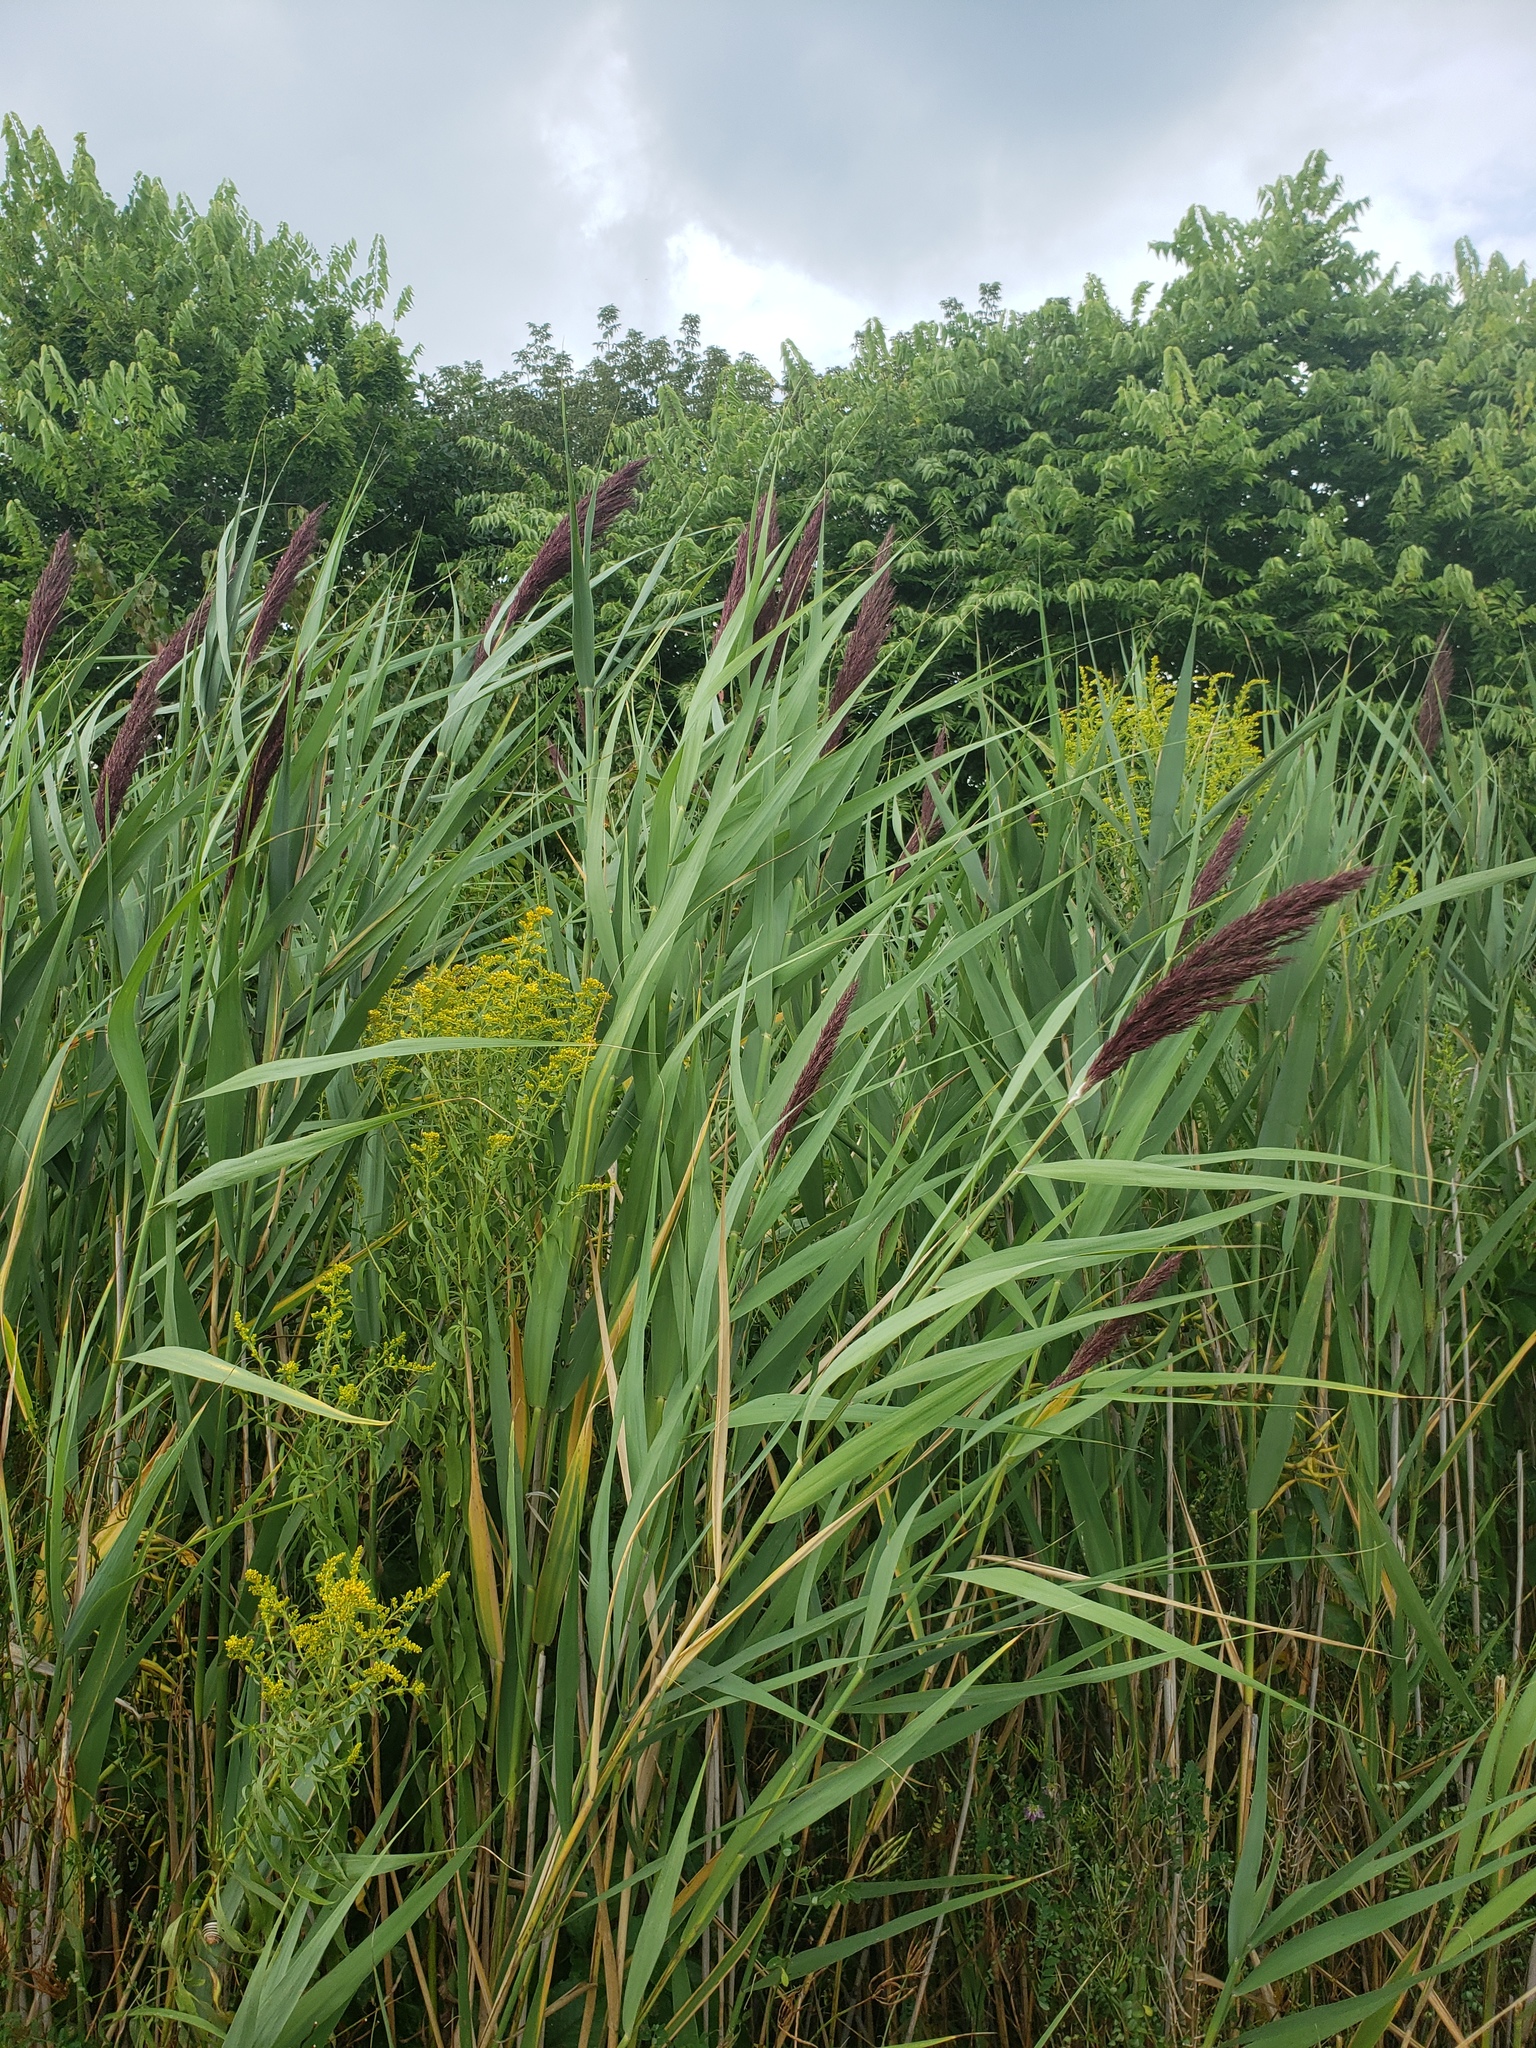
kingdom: Plantae
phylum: Tracheophyta
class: Liliopsida
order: Poales
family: Poaceae
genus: Phragmites
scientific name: Phragmites australis
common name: Common reed
